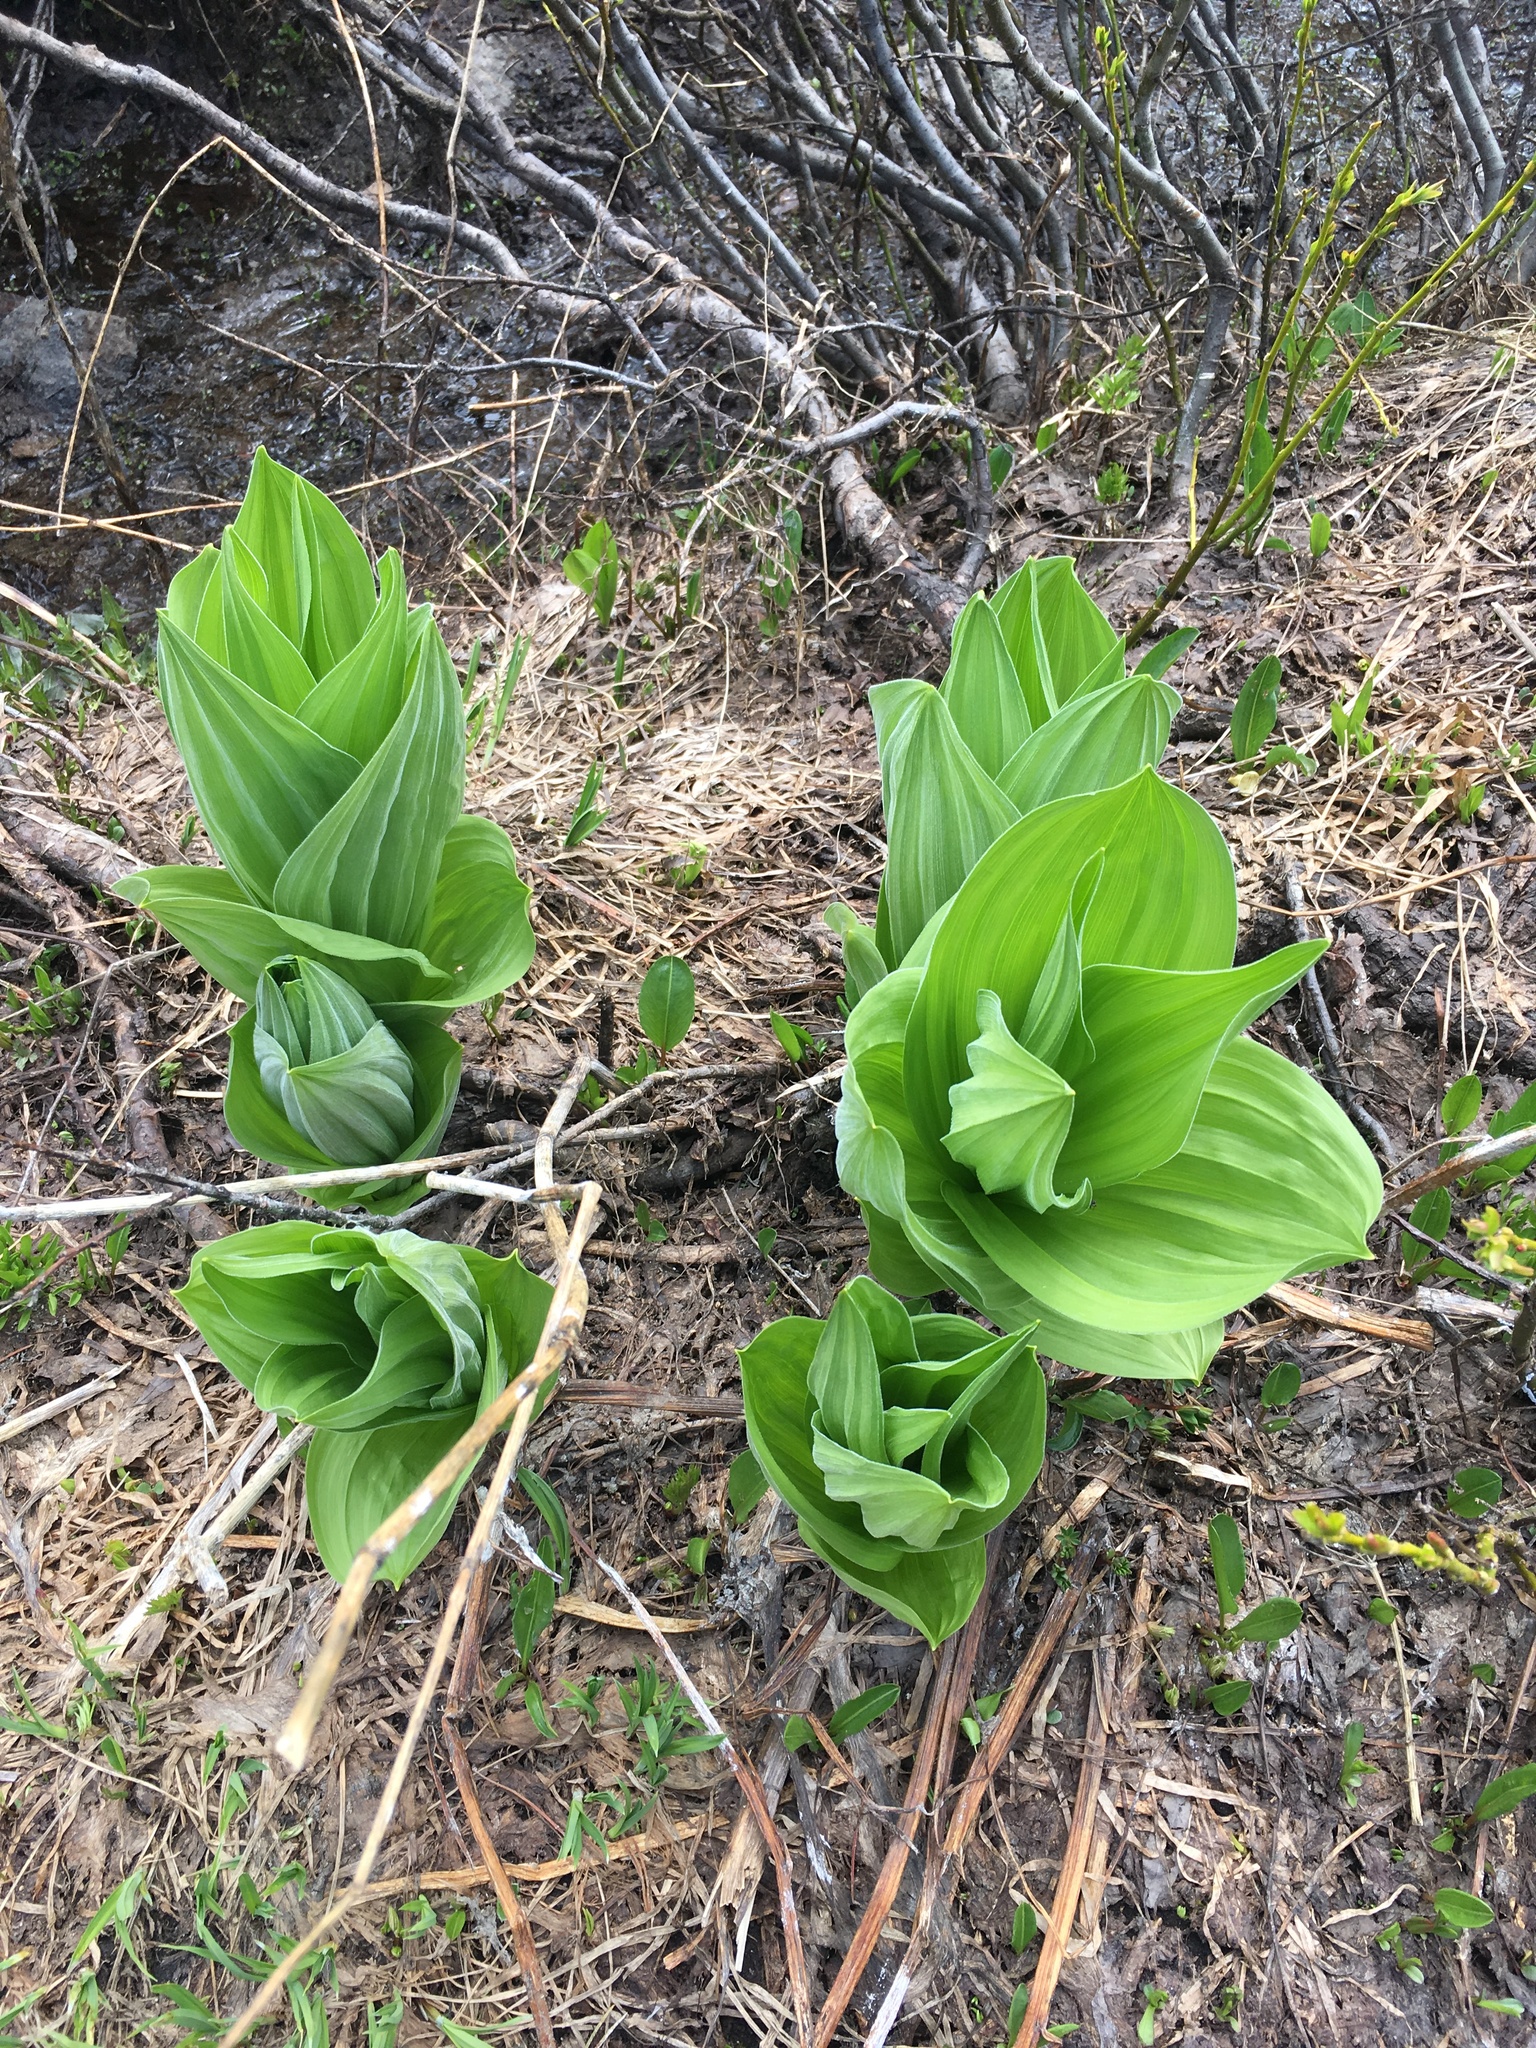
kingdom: Plantae
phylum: Tracheophyta
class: Liliopsida
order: Liliales
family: Melanthiaceae
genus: Veratrum
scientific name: Veratrum californicum
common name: California veratrum
